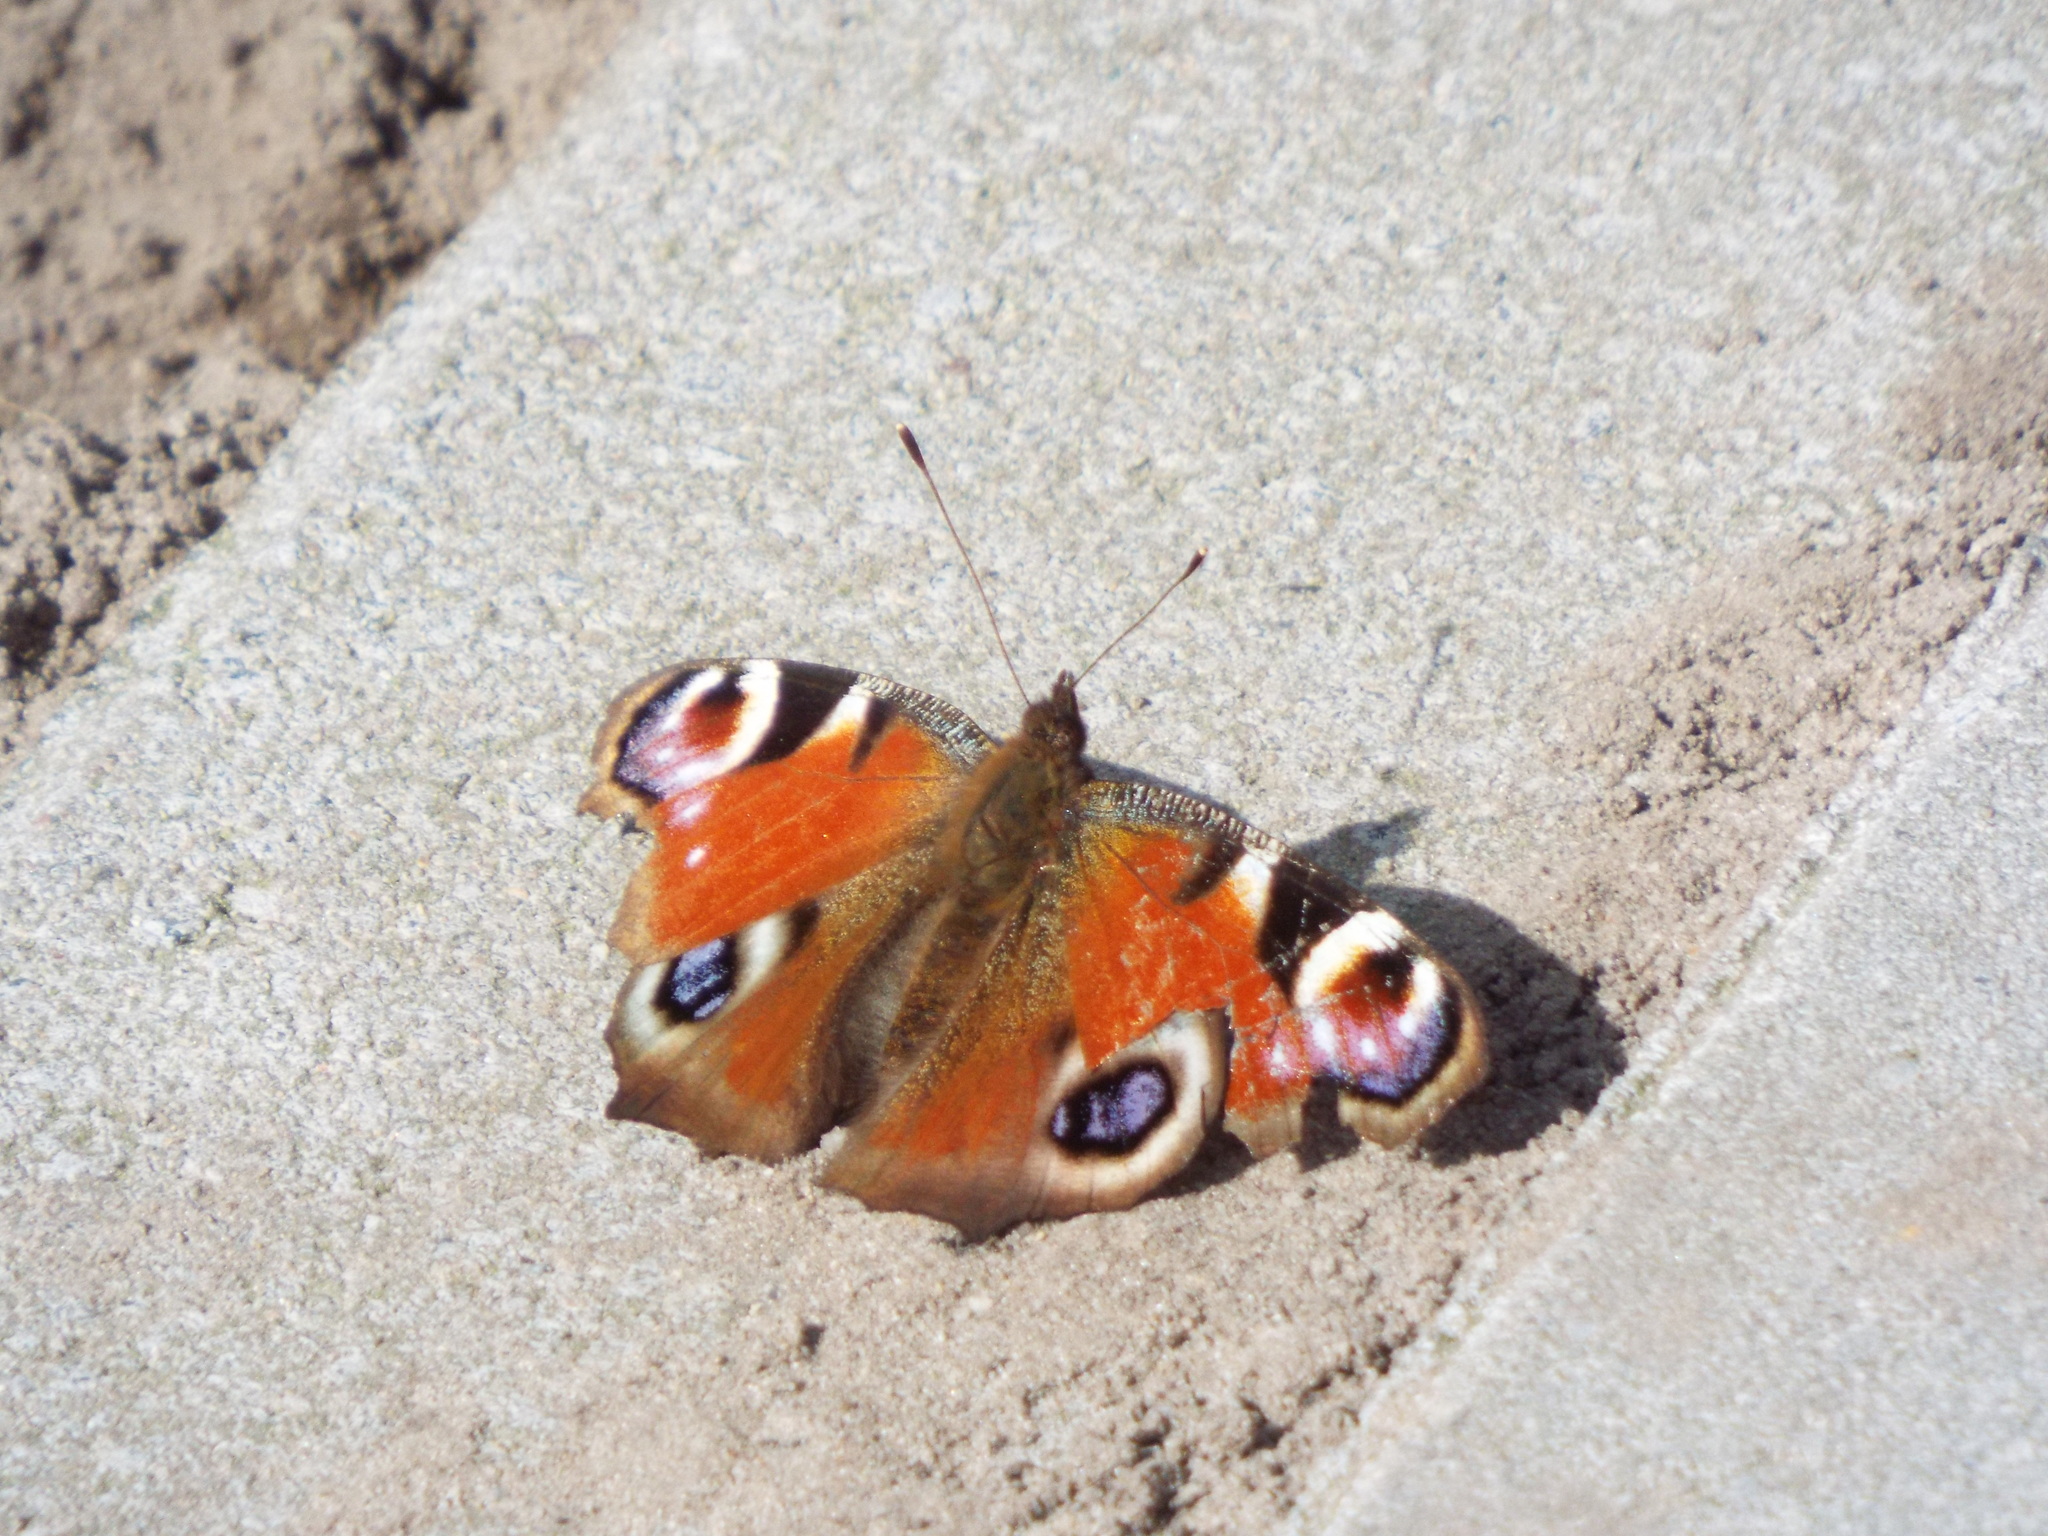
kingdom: Animalia
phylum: Arthropoda
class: Insecta
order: Lepidoptera
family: Nymphalidae
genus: Aglais
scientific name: Aglais io
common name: Peacock
